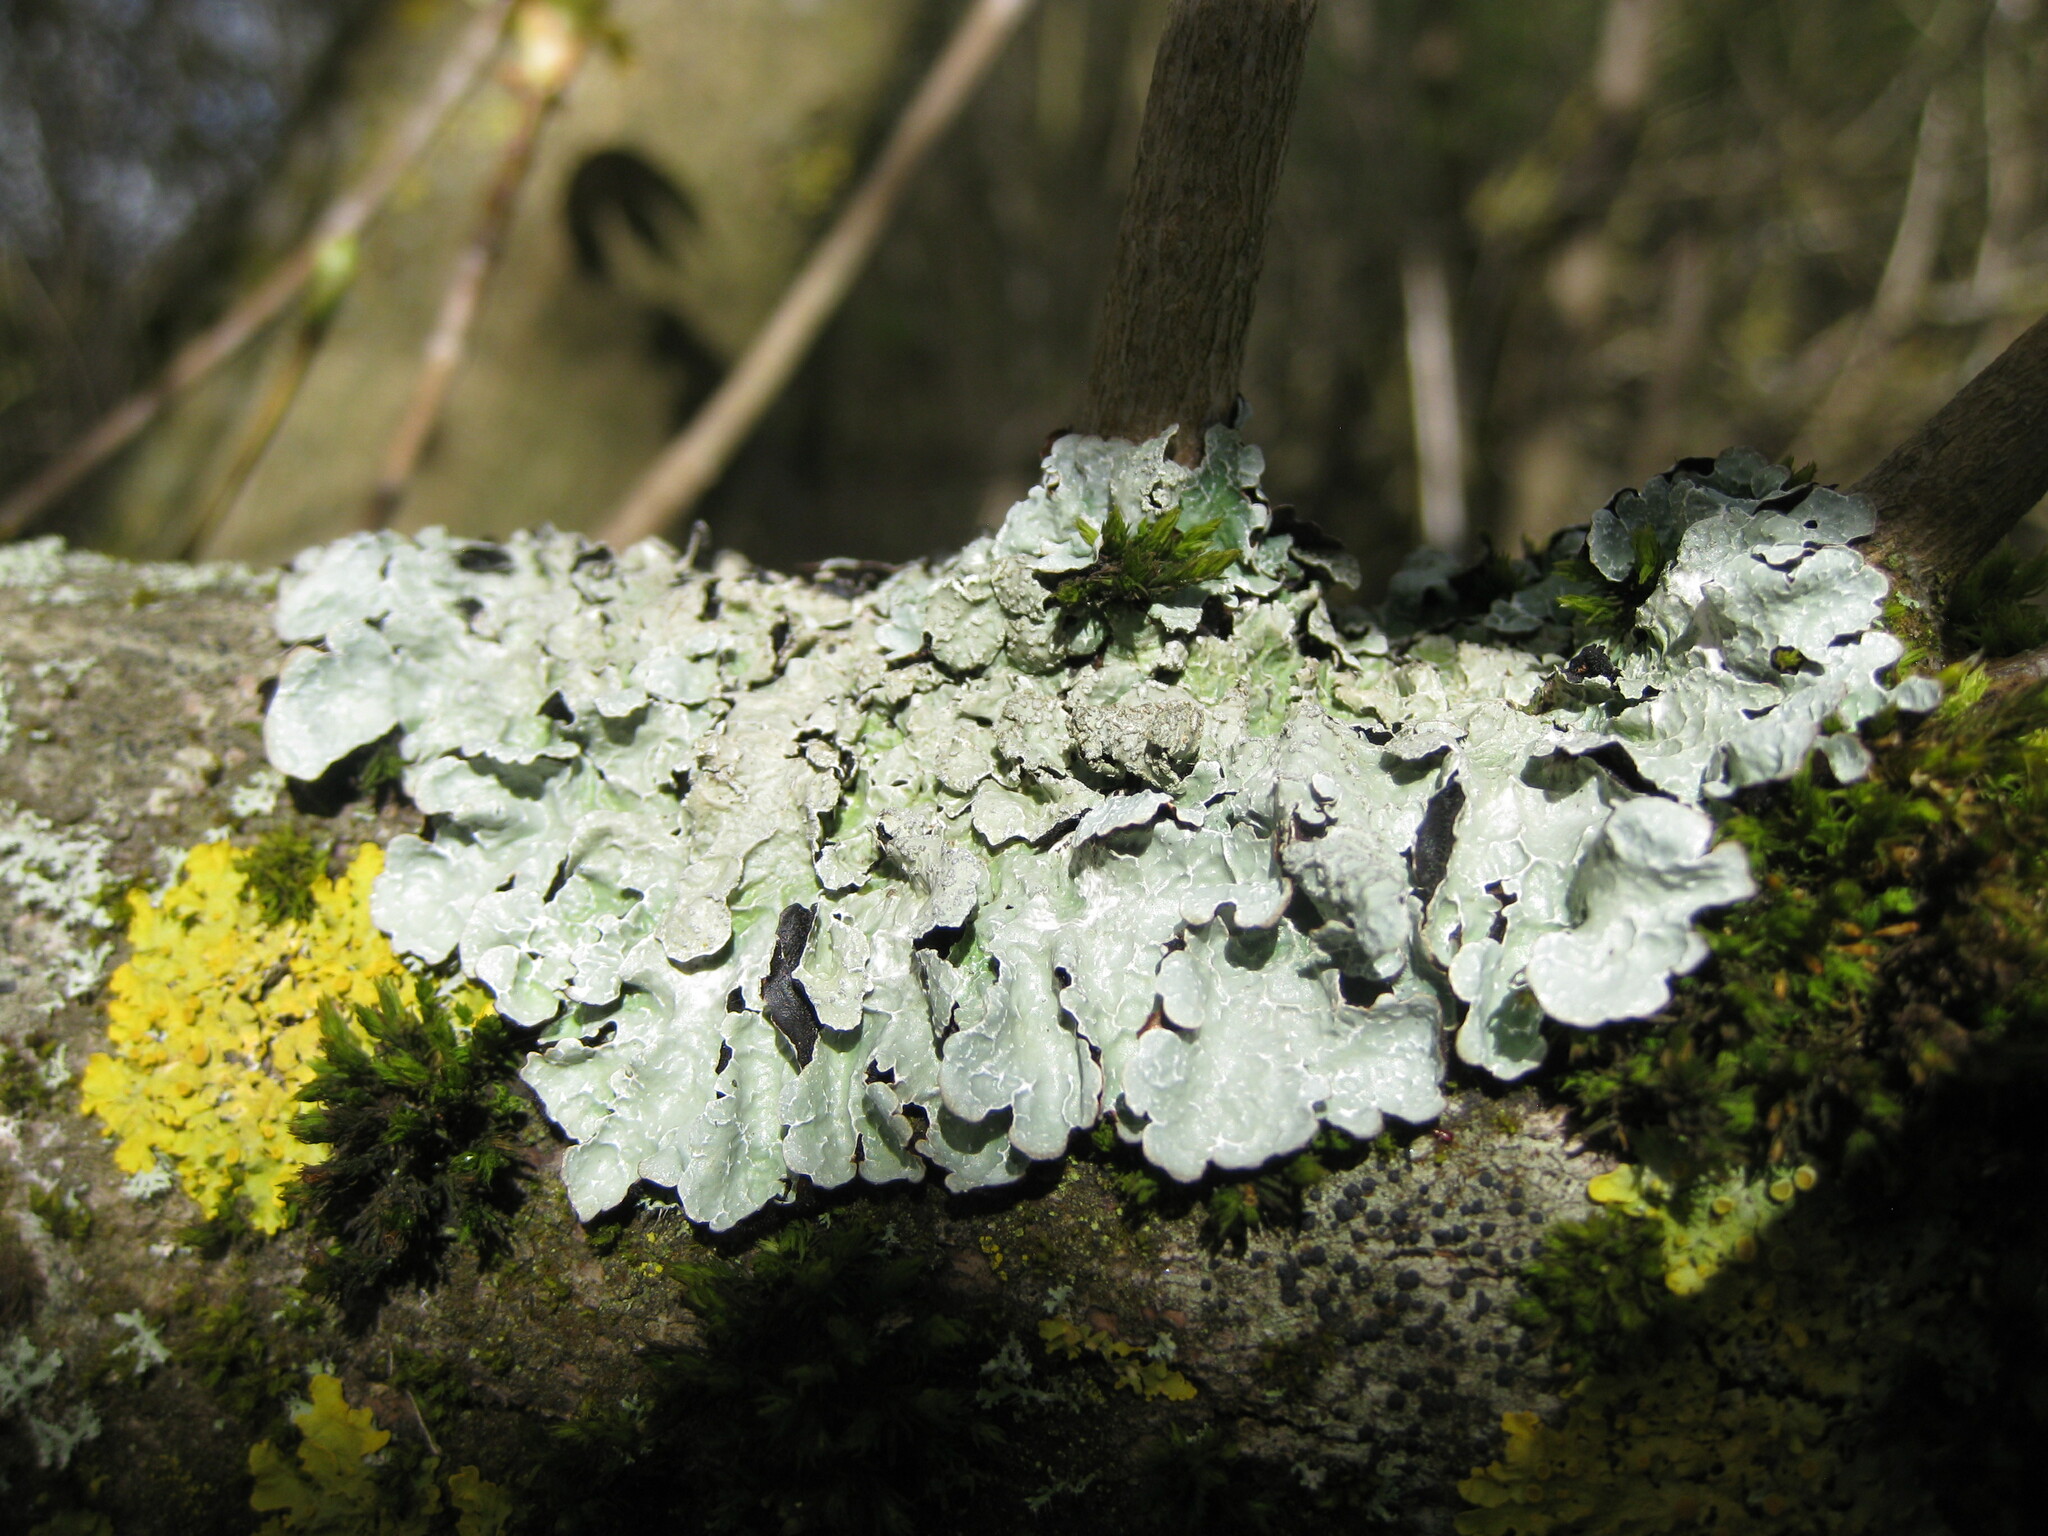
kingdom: Fungi
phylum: Ascomycota
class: Lecanoromycetes
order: Lecanorales
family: Parmeliaceae
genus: Parmelia
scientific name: Parmelia sulcata
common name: Netted shield lichen
